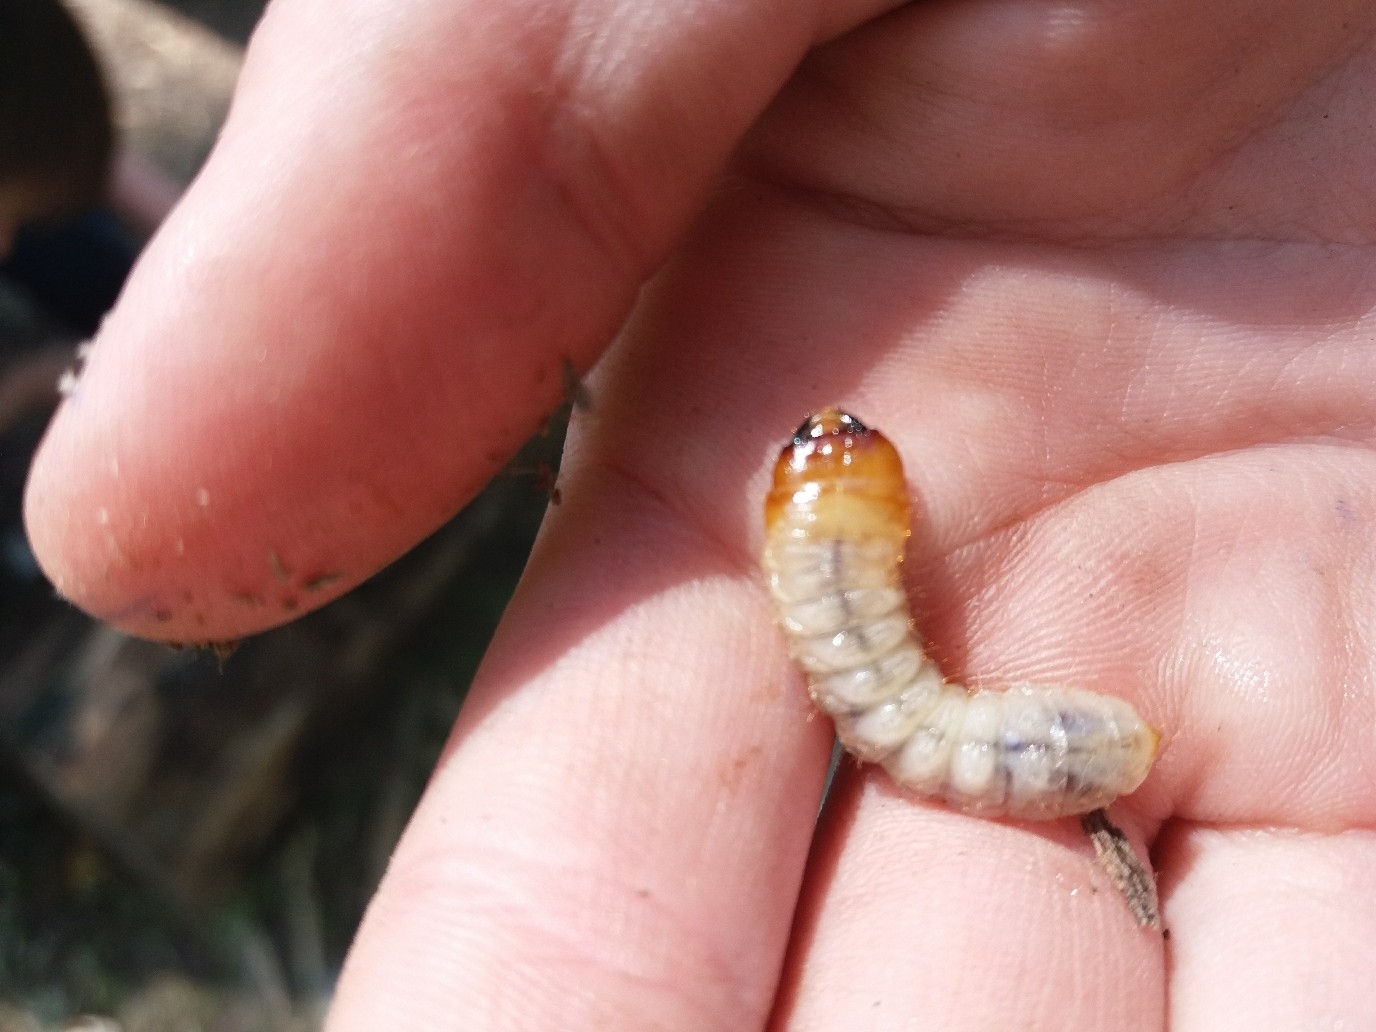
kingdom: Animalia
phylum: Arthropoda
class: Insecta
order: Coleoptera
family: Cerambycidae
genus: Rhagium
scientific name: Rhagium inquisitor
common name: Ribbed pine borer
